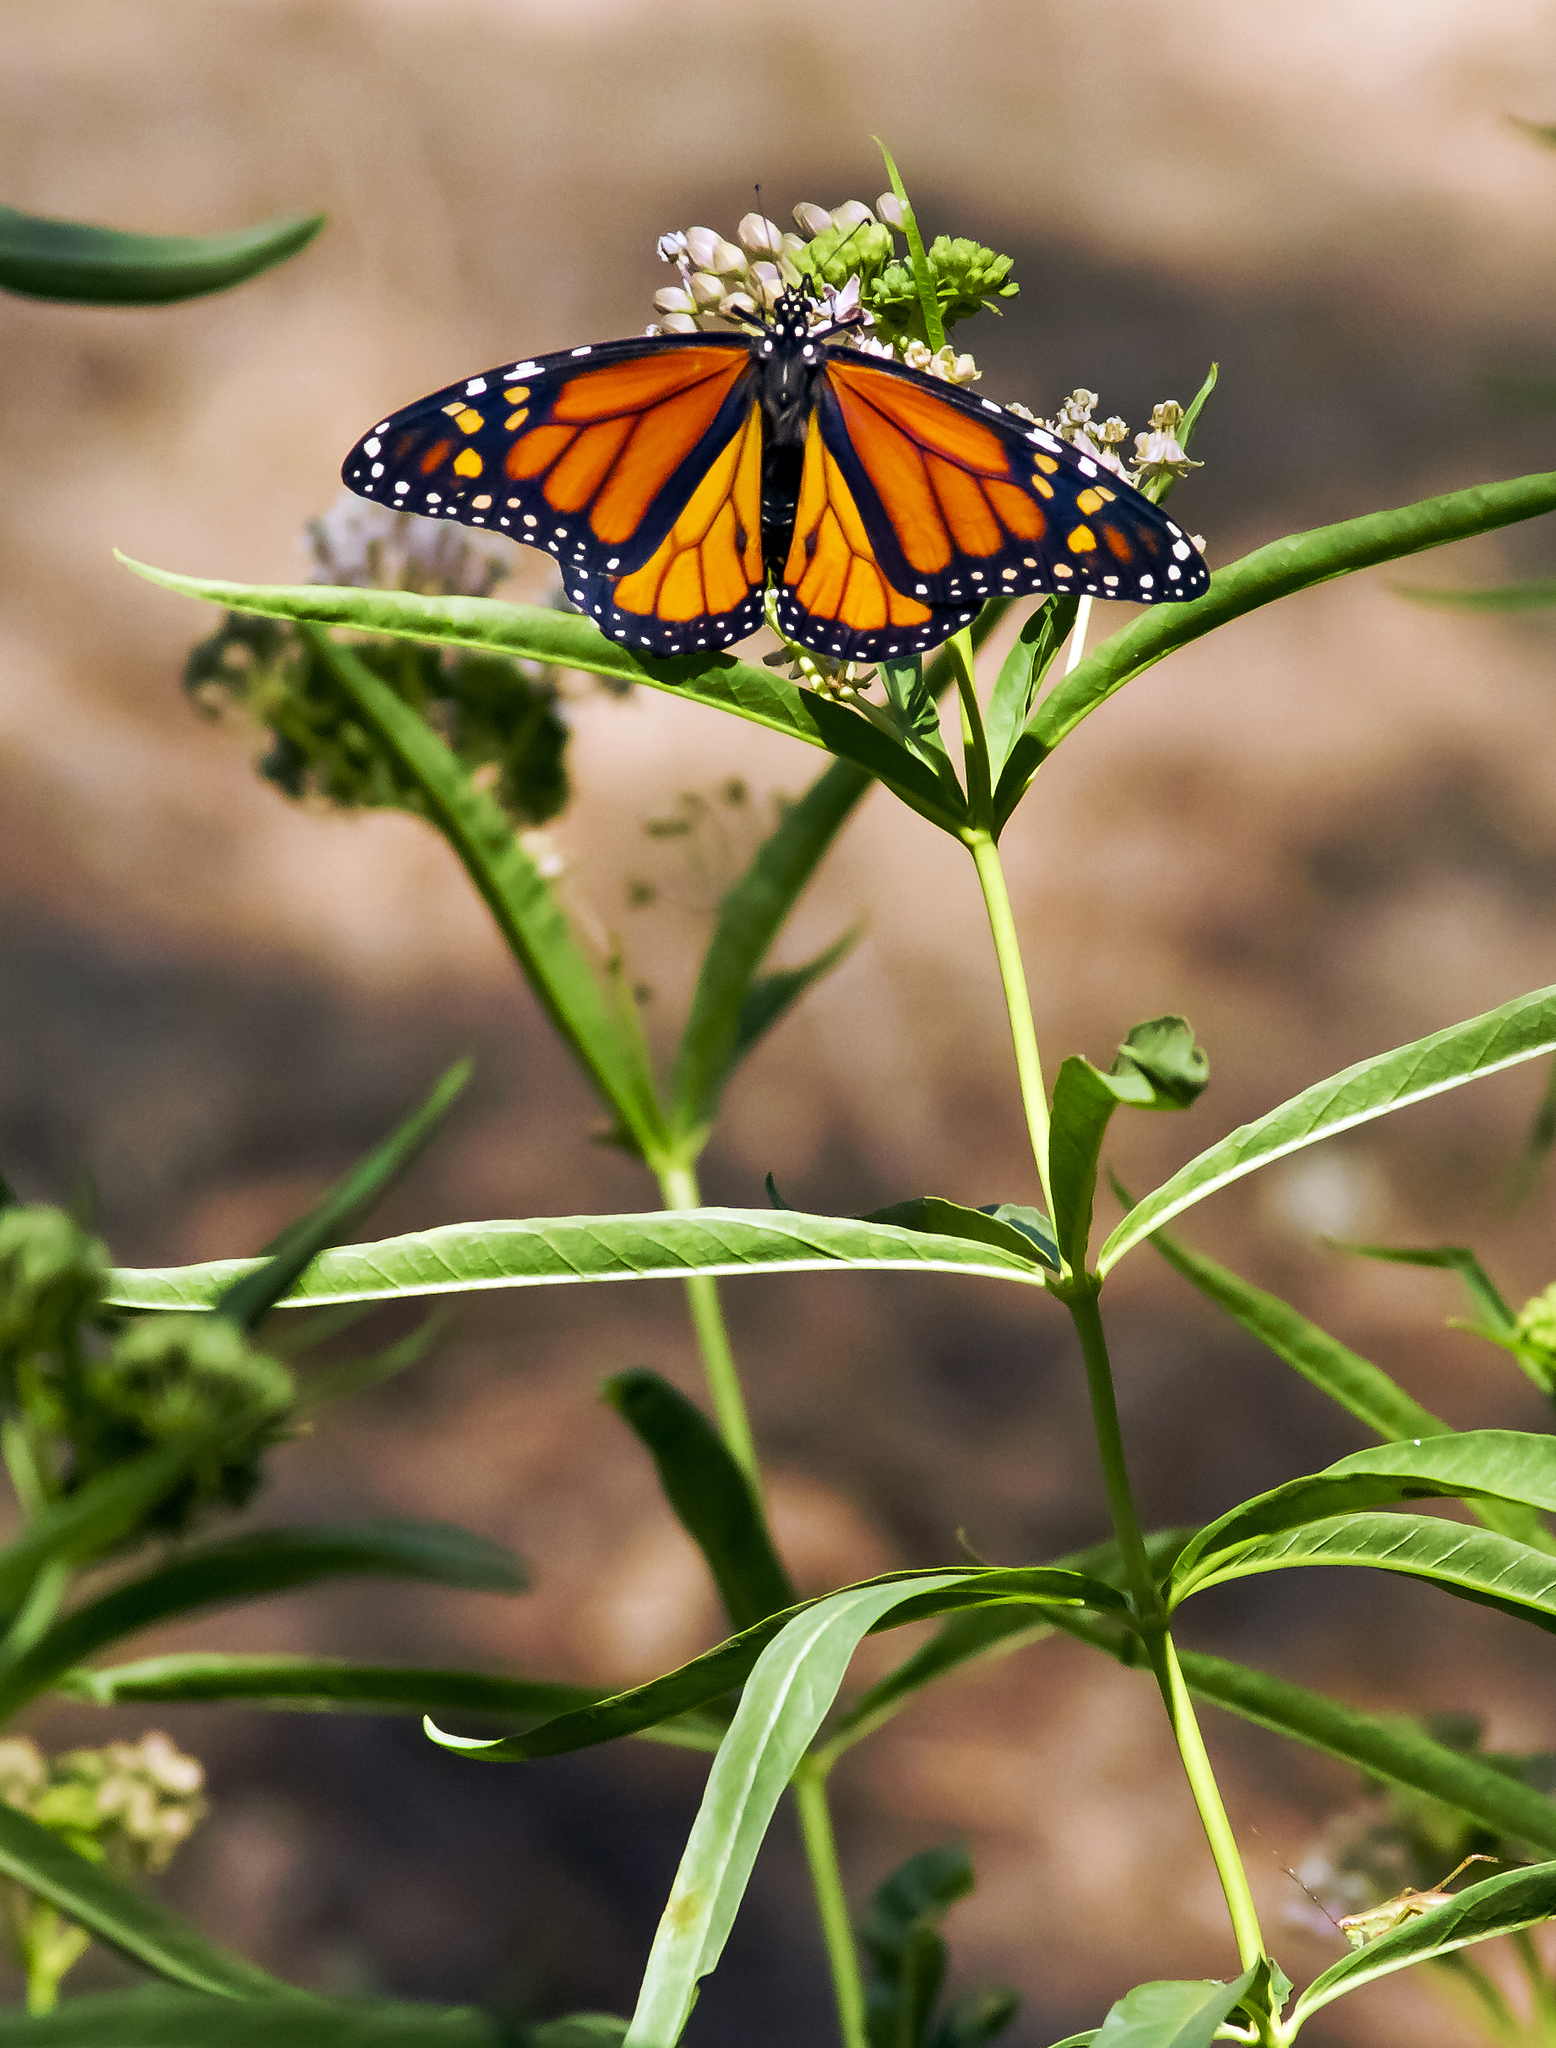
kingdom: Plantae
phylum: Tracheophyta
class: Magnoliopsida
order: Gentianales
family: Apocynaceae
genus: Asclepias
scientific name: Asclepias fascicularis
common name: Mexican milkweed
